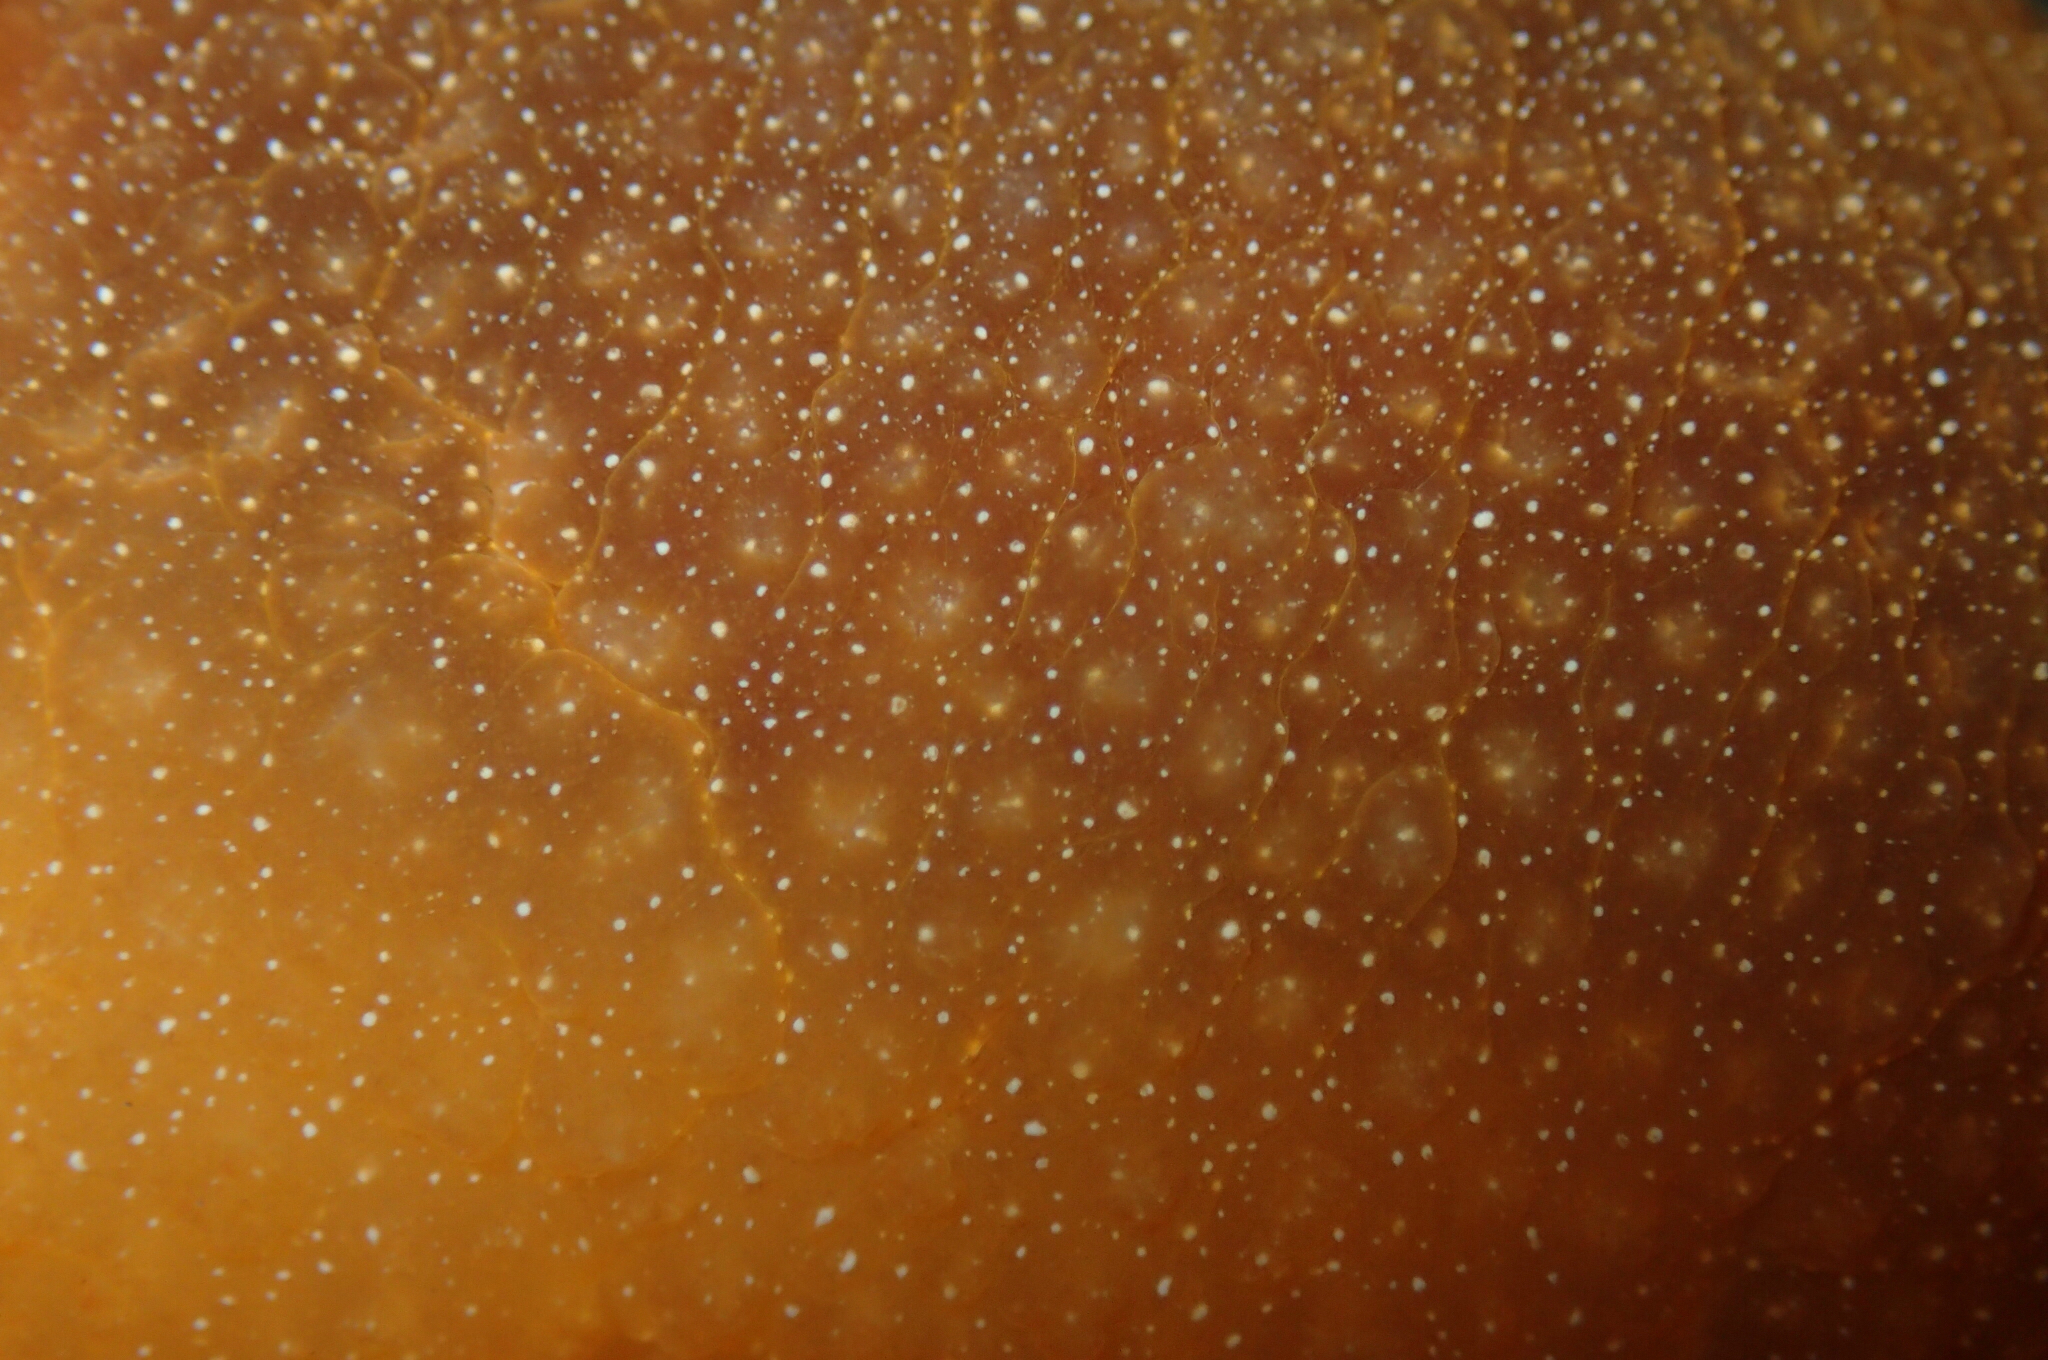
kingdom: Animalia
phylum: Mollusca
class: Gastropoda
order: Nudibranchia
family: Dendrodorididae
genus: Doriopsilla
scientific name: Doriopsilla albopunctata
